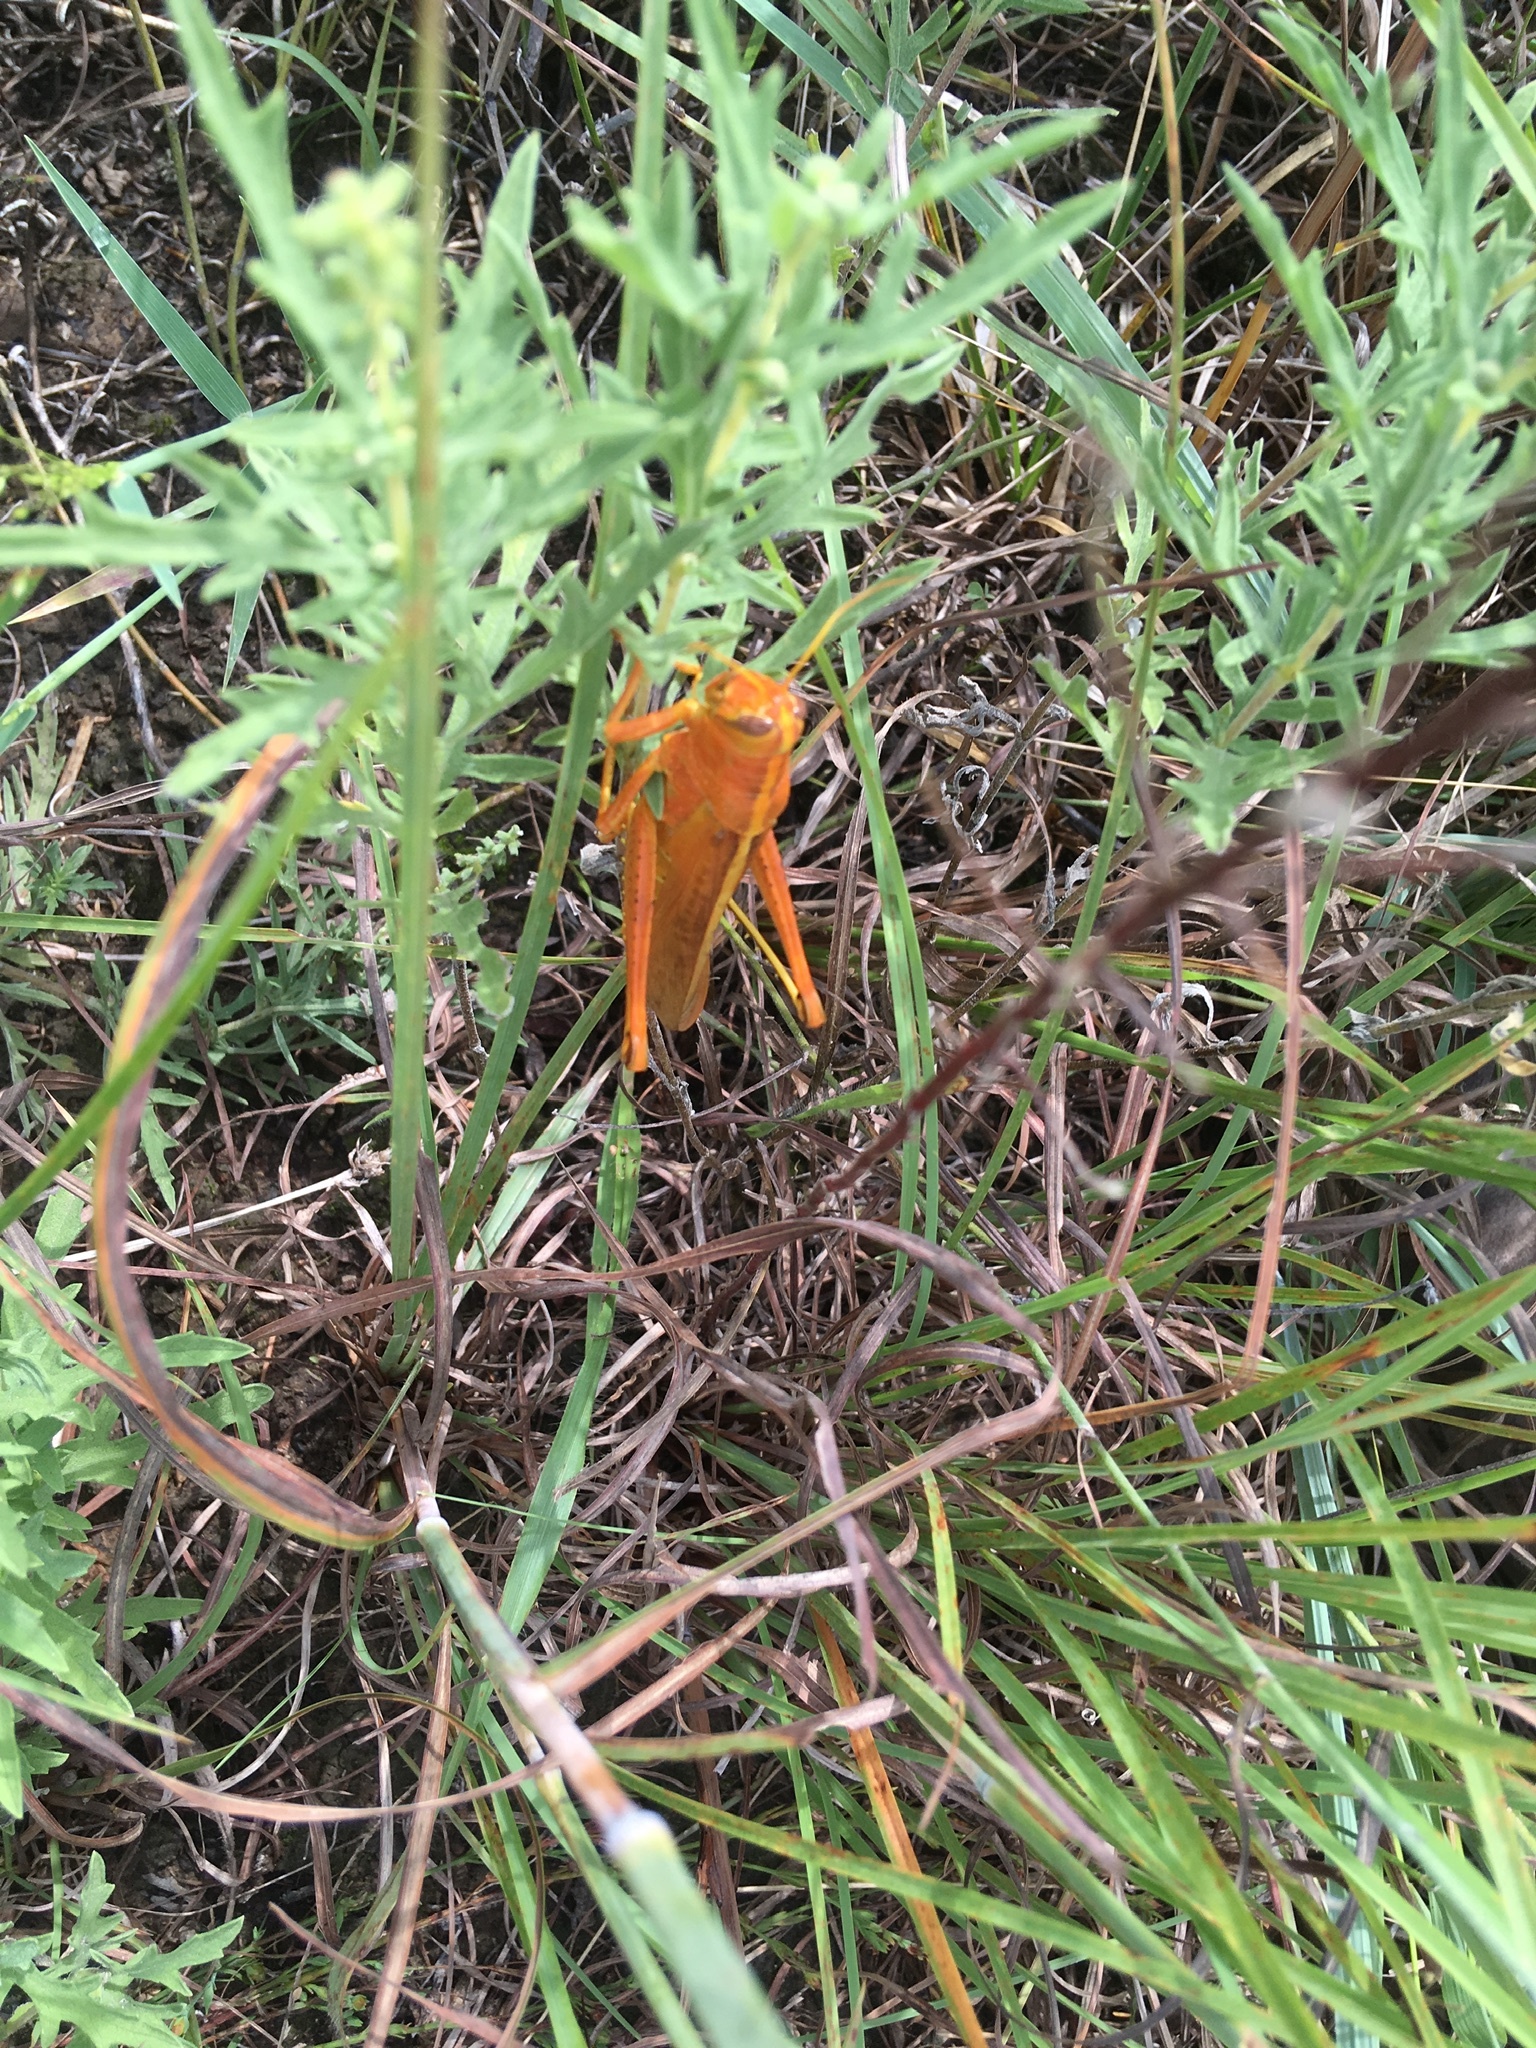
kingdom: Animalia
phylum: Arthropoda
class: Insecta
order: Orthoptera
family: Acrididae
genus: Schistocerca
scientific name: Schistocerca lineata
